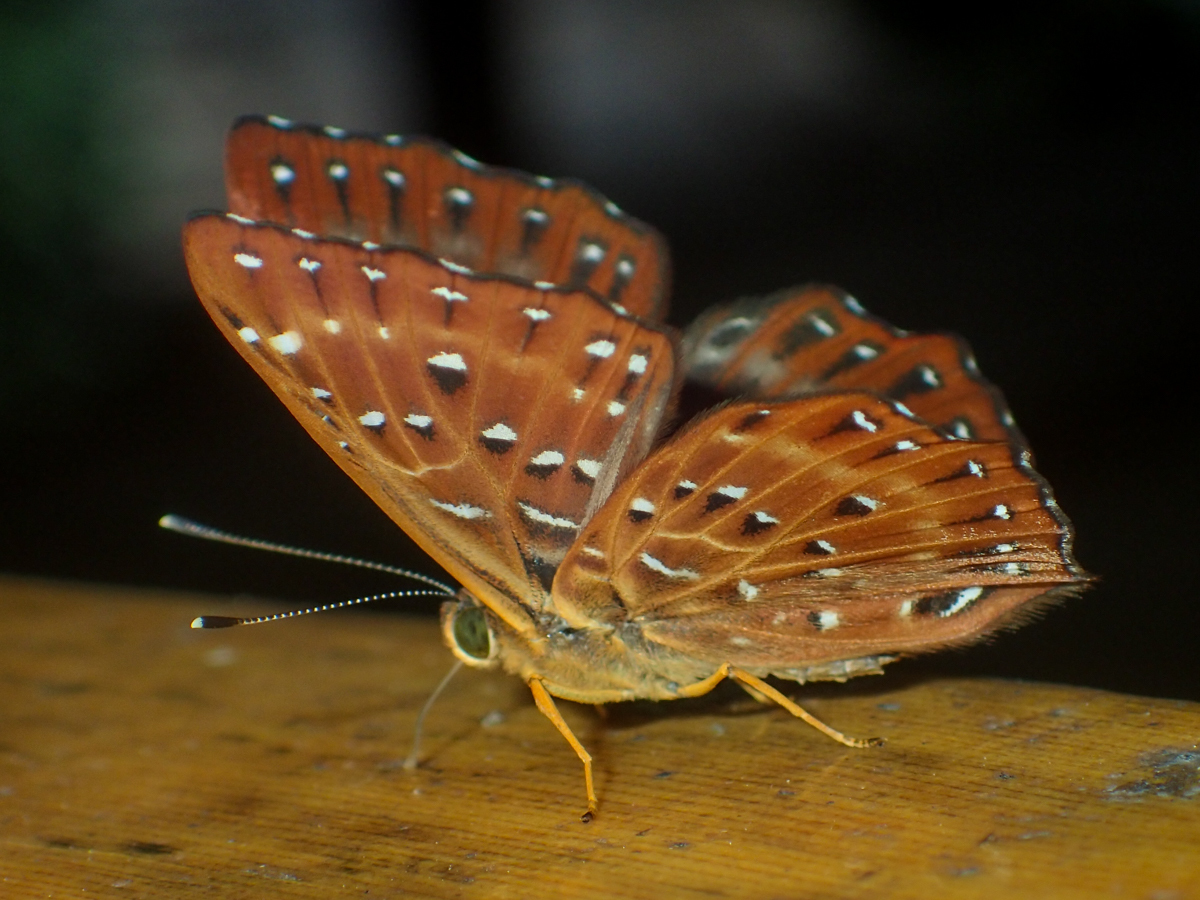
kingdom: Animalia
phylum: Arthropoda
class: Insecta
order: Lepidoptera
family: Riodinidae
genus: Zemeros
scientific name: Zemeros flegyas
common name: Punchinello
